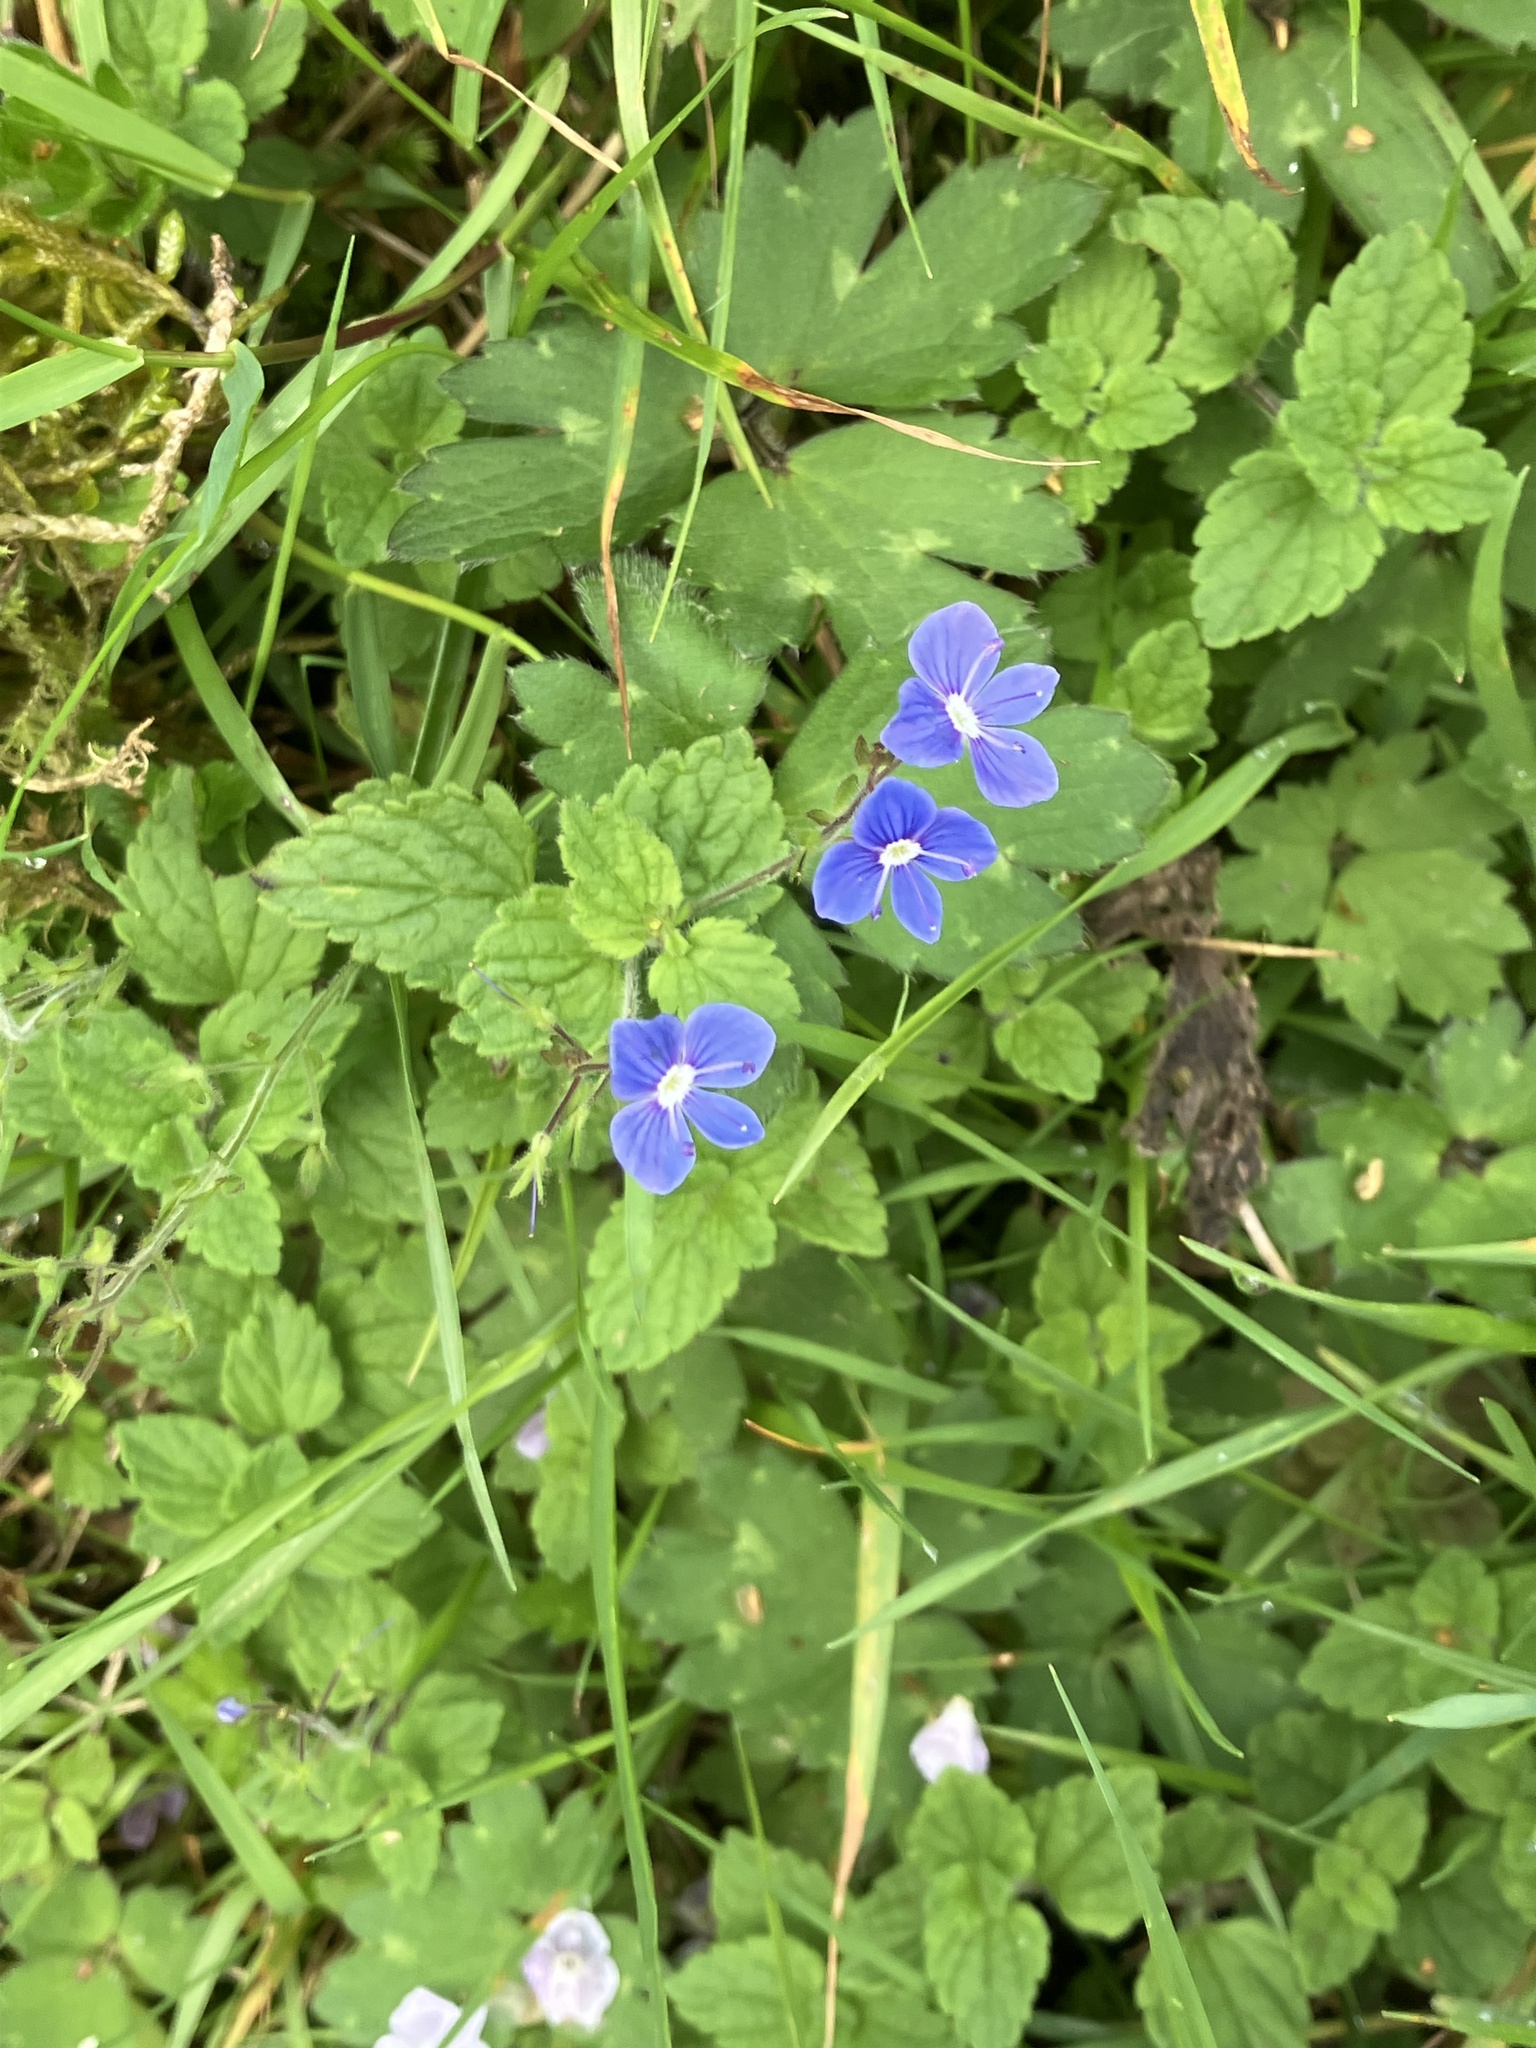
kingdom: Plantae
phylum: Tracheophyta
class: Magnoliopsida
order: Lamiales
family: Plantaginaceae
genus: Veronica
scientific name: Veronica chamaedrys
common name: Germander speedwell
